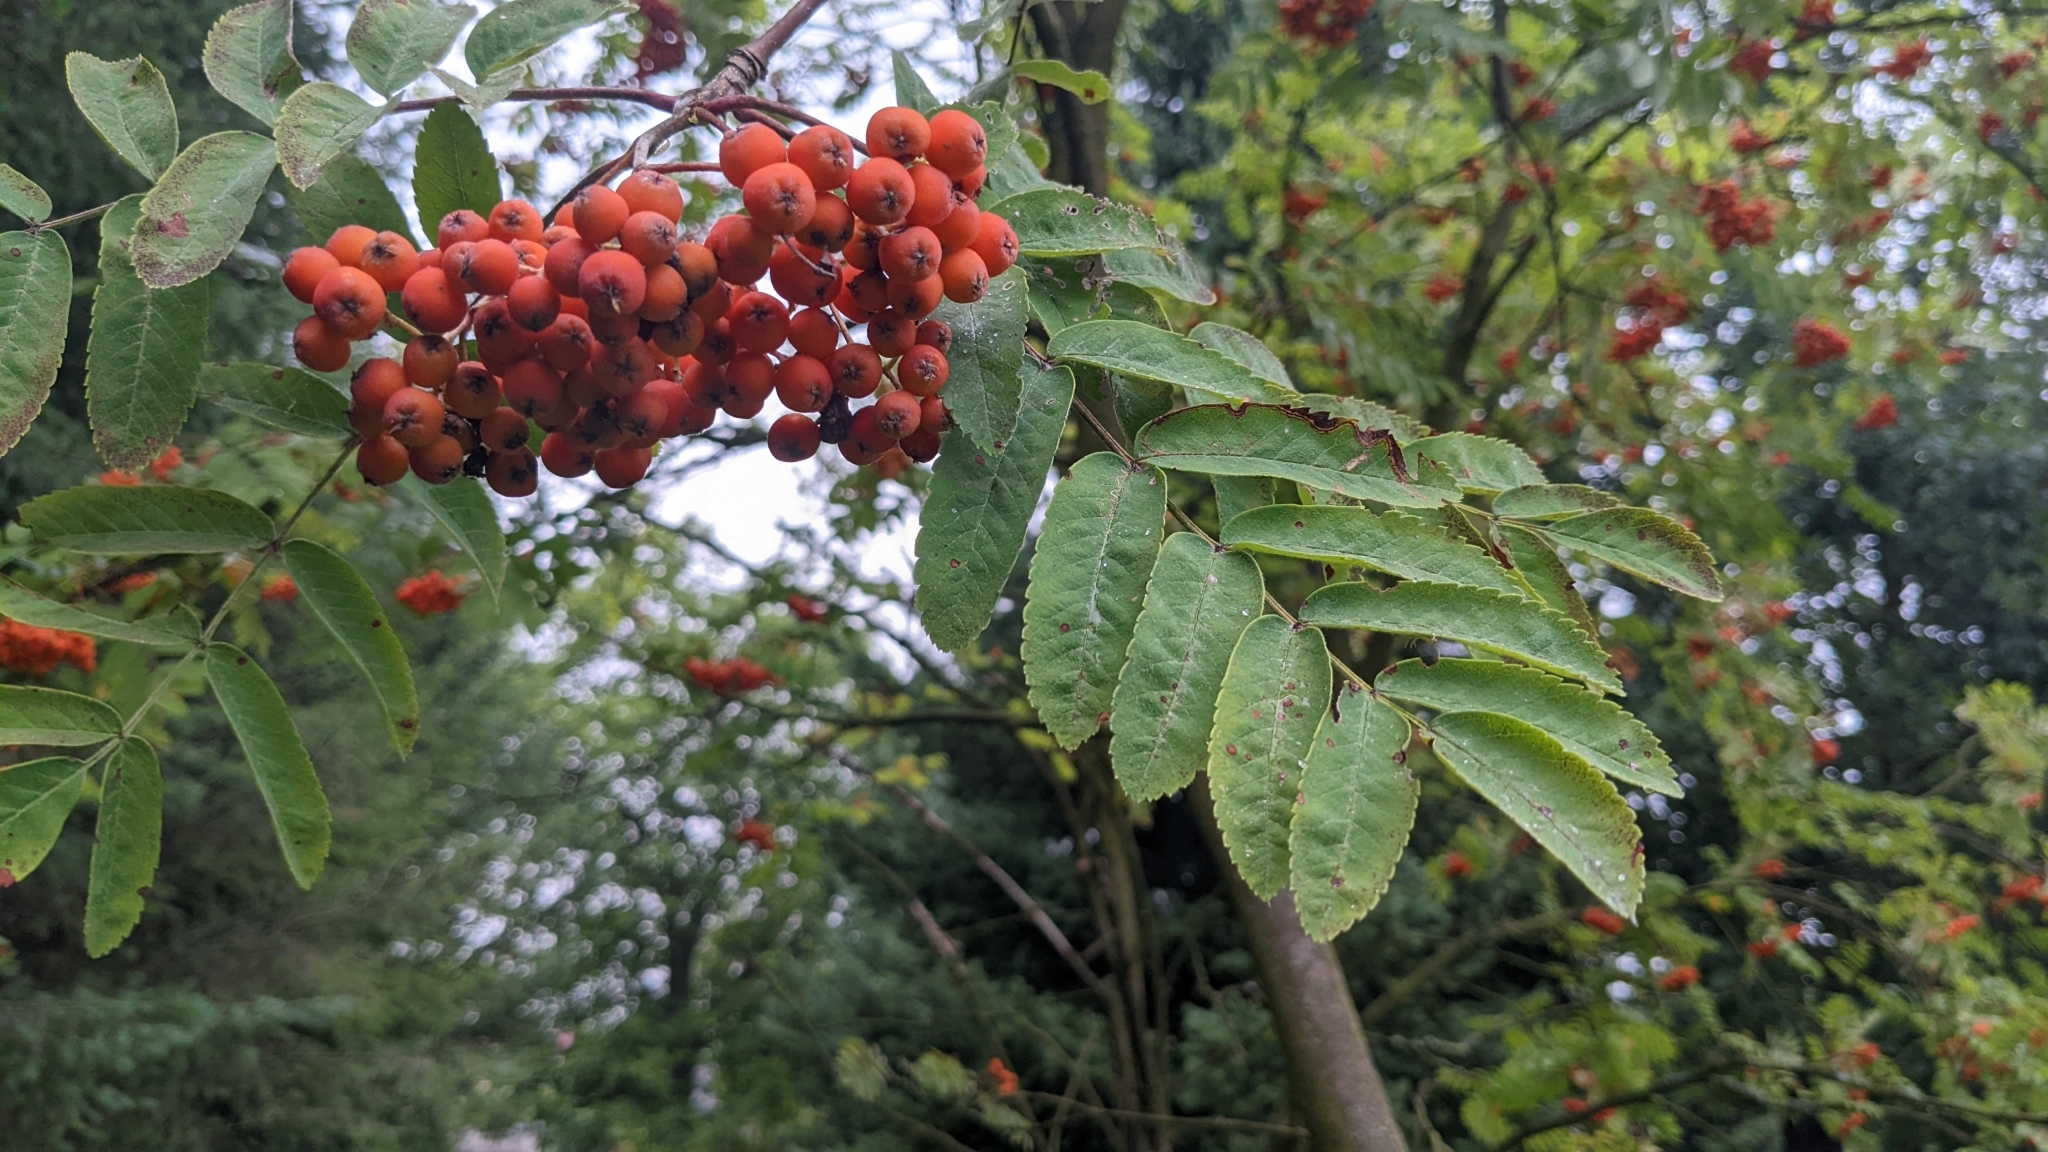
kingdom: Plantae
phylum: Tracheophyta
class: Magnoliopsida
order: Rosales
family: Rosaceae
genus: Sorbus
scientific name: Sorbus aucuparia
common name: Rowan
